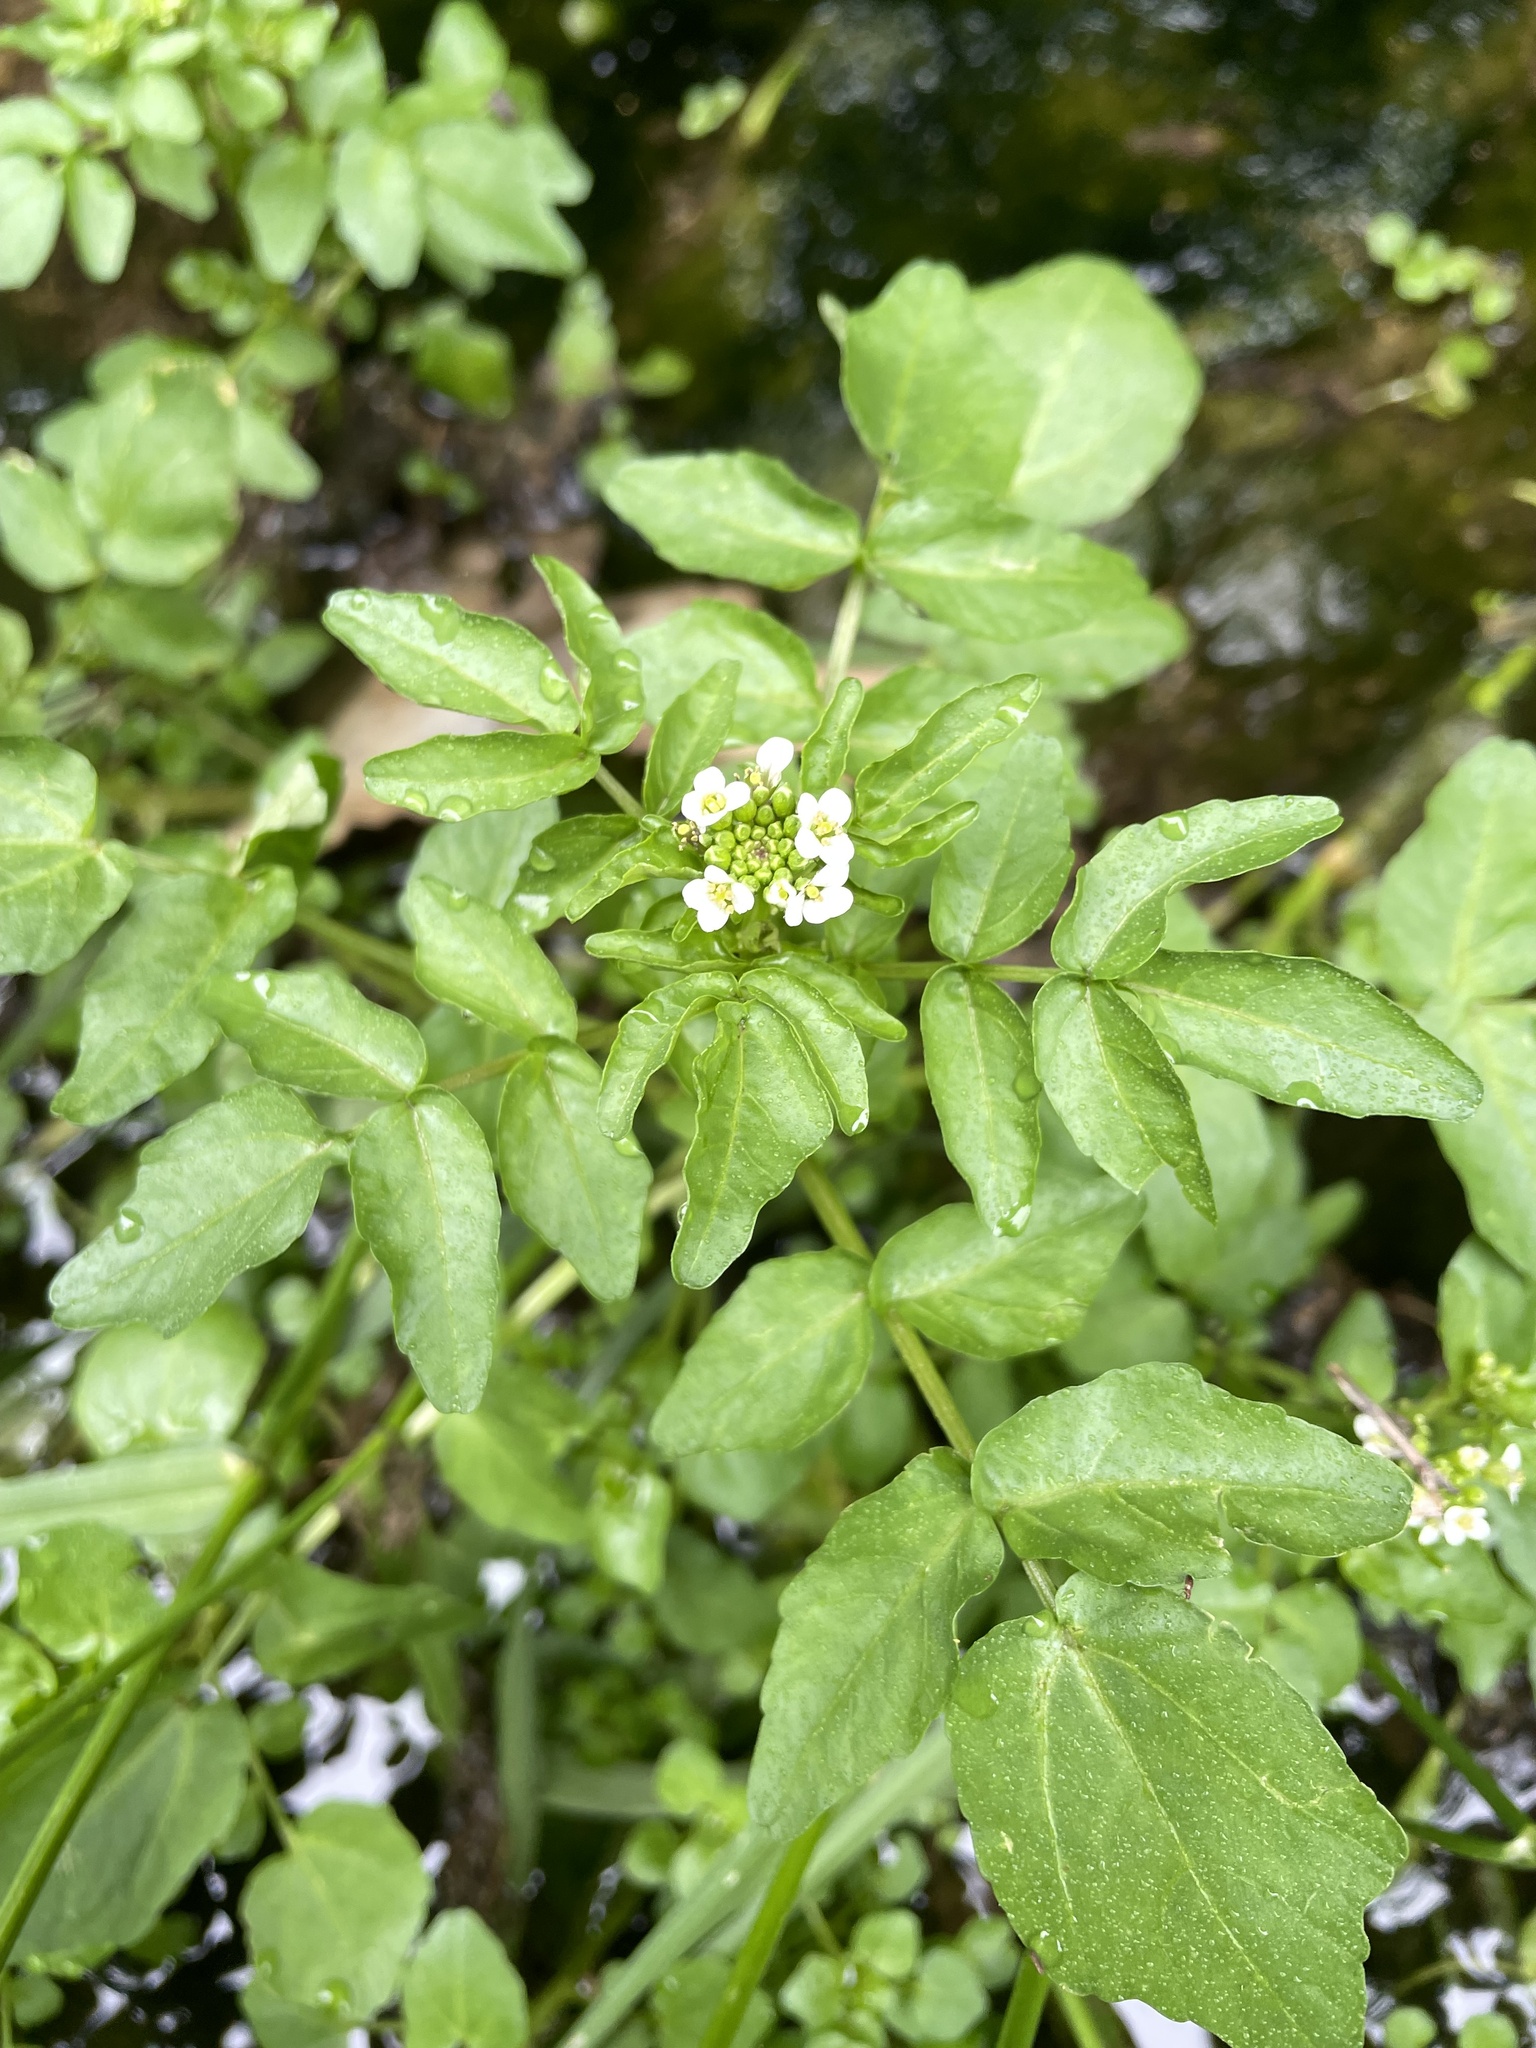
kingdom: Plantae
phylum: Tracheophyta
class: Magnoliopsida
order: Brassicales
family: Brassicaceae
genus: Nasturtium
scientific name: Nasturtium officinale
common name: Watercress
